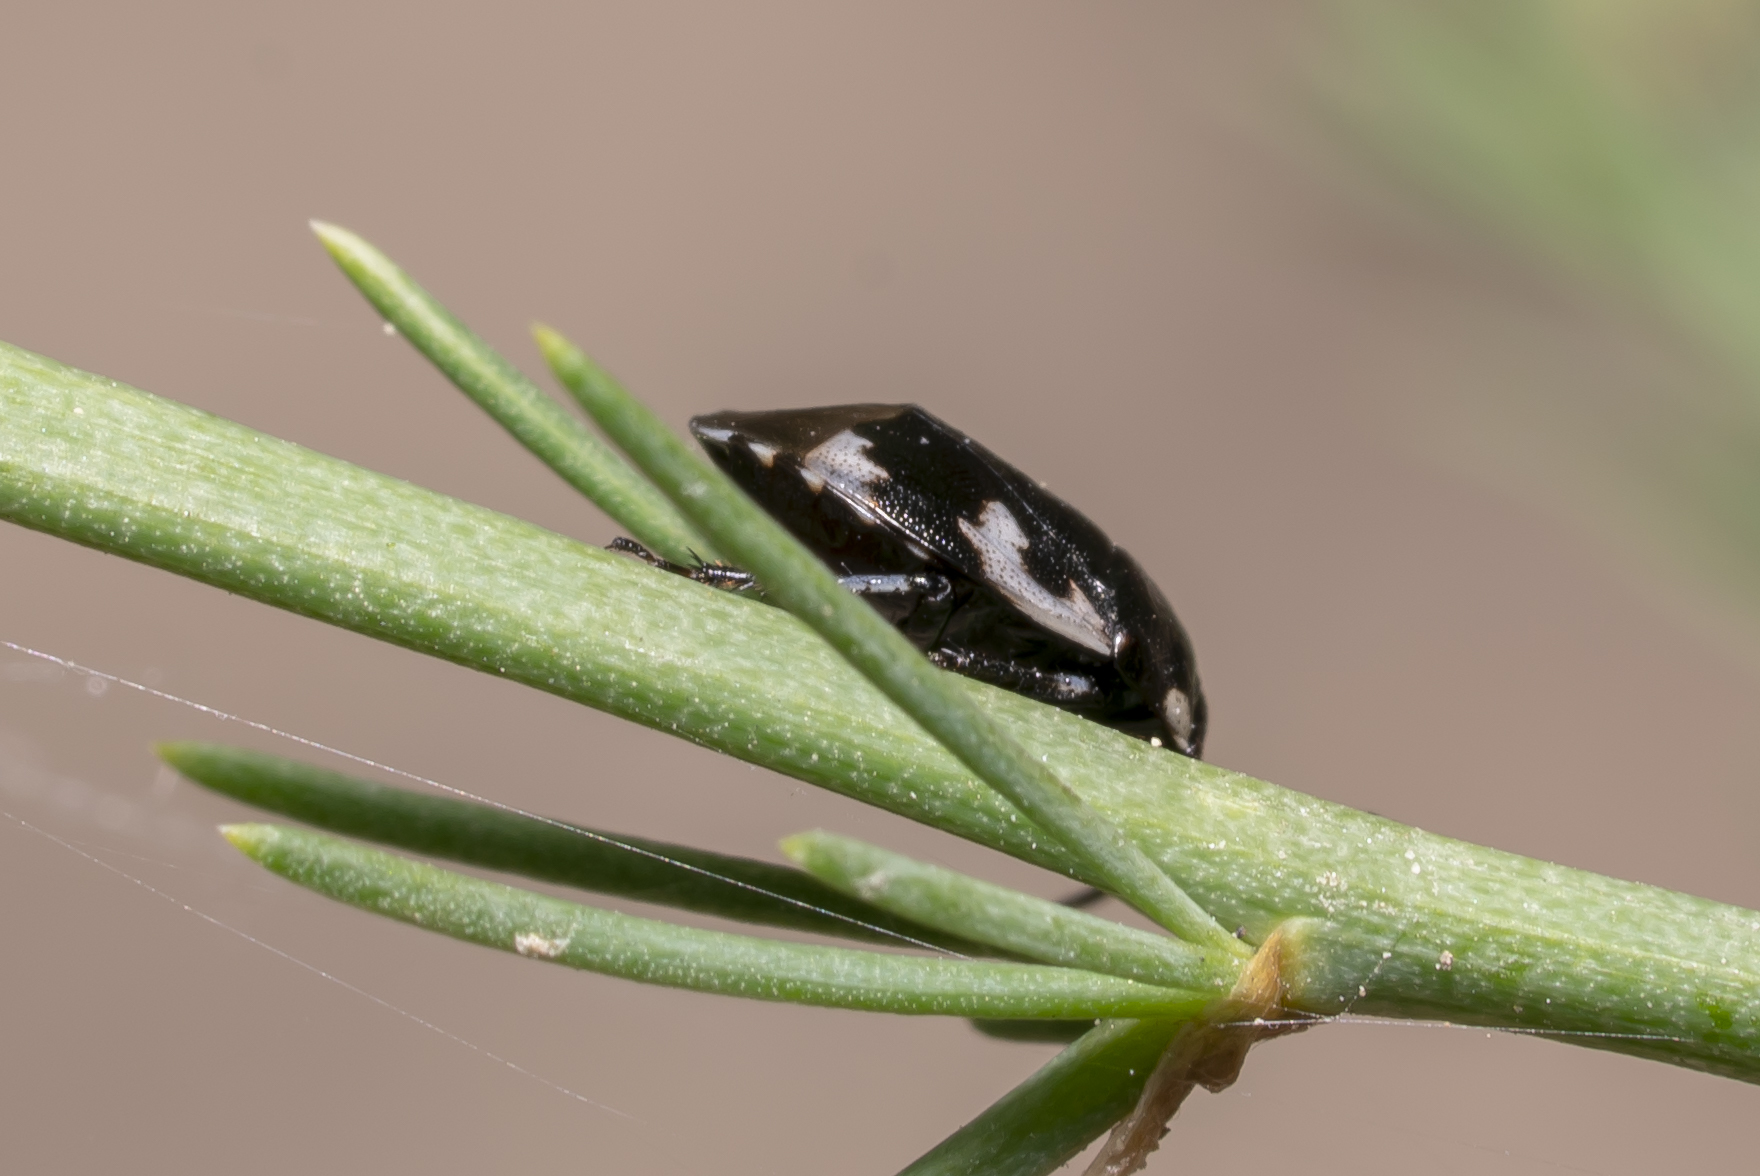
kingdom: Animalia
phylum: Arthropoda
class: Insecta
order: Hemiptera
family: Cydnidae
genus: Tritomegas
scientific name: Tritomegas bicolor
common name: Pied shieldbug
